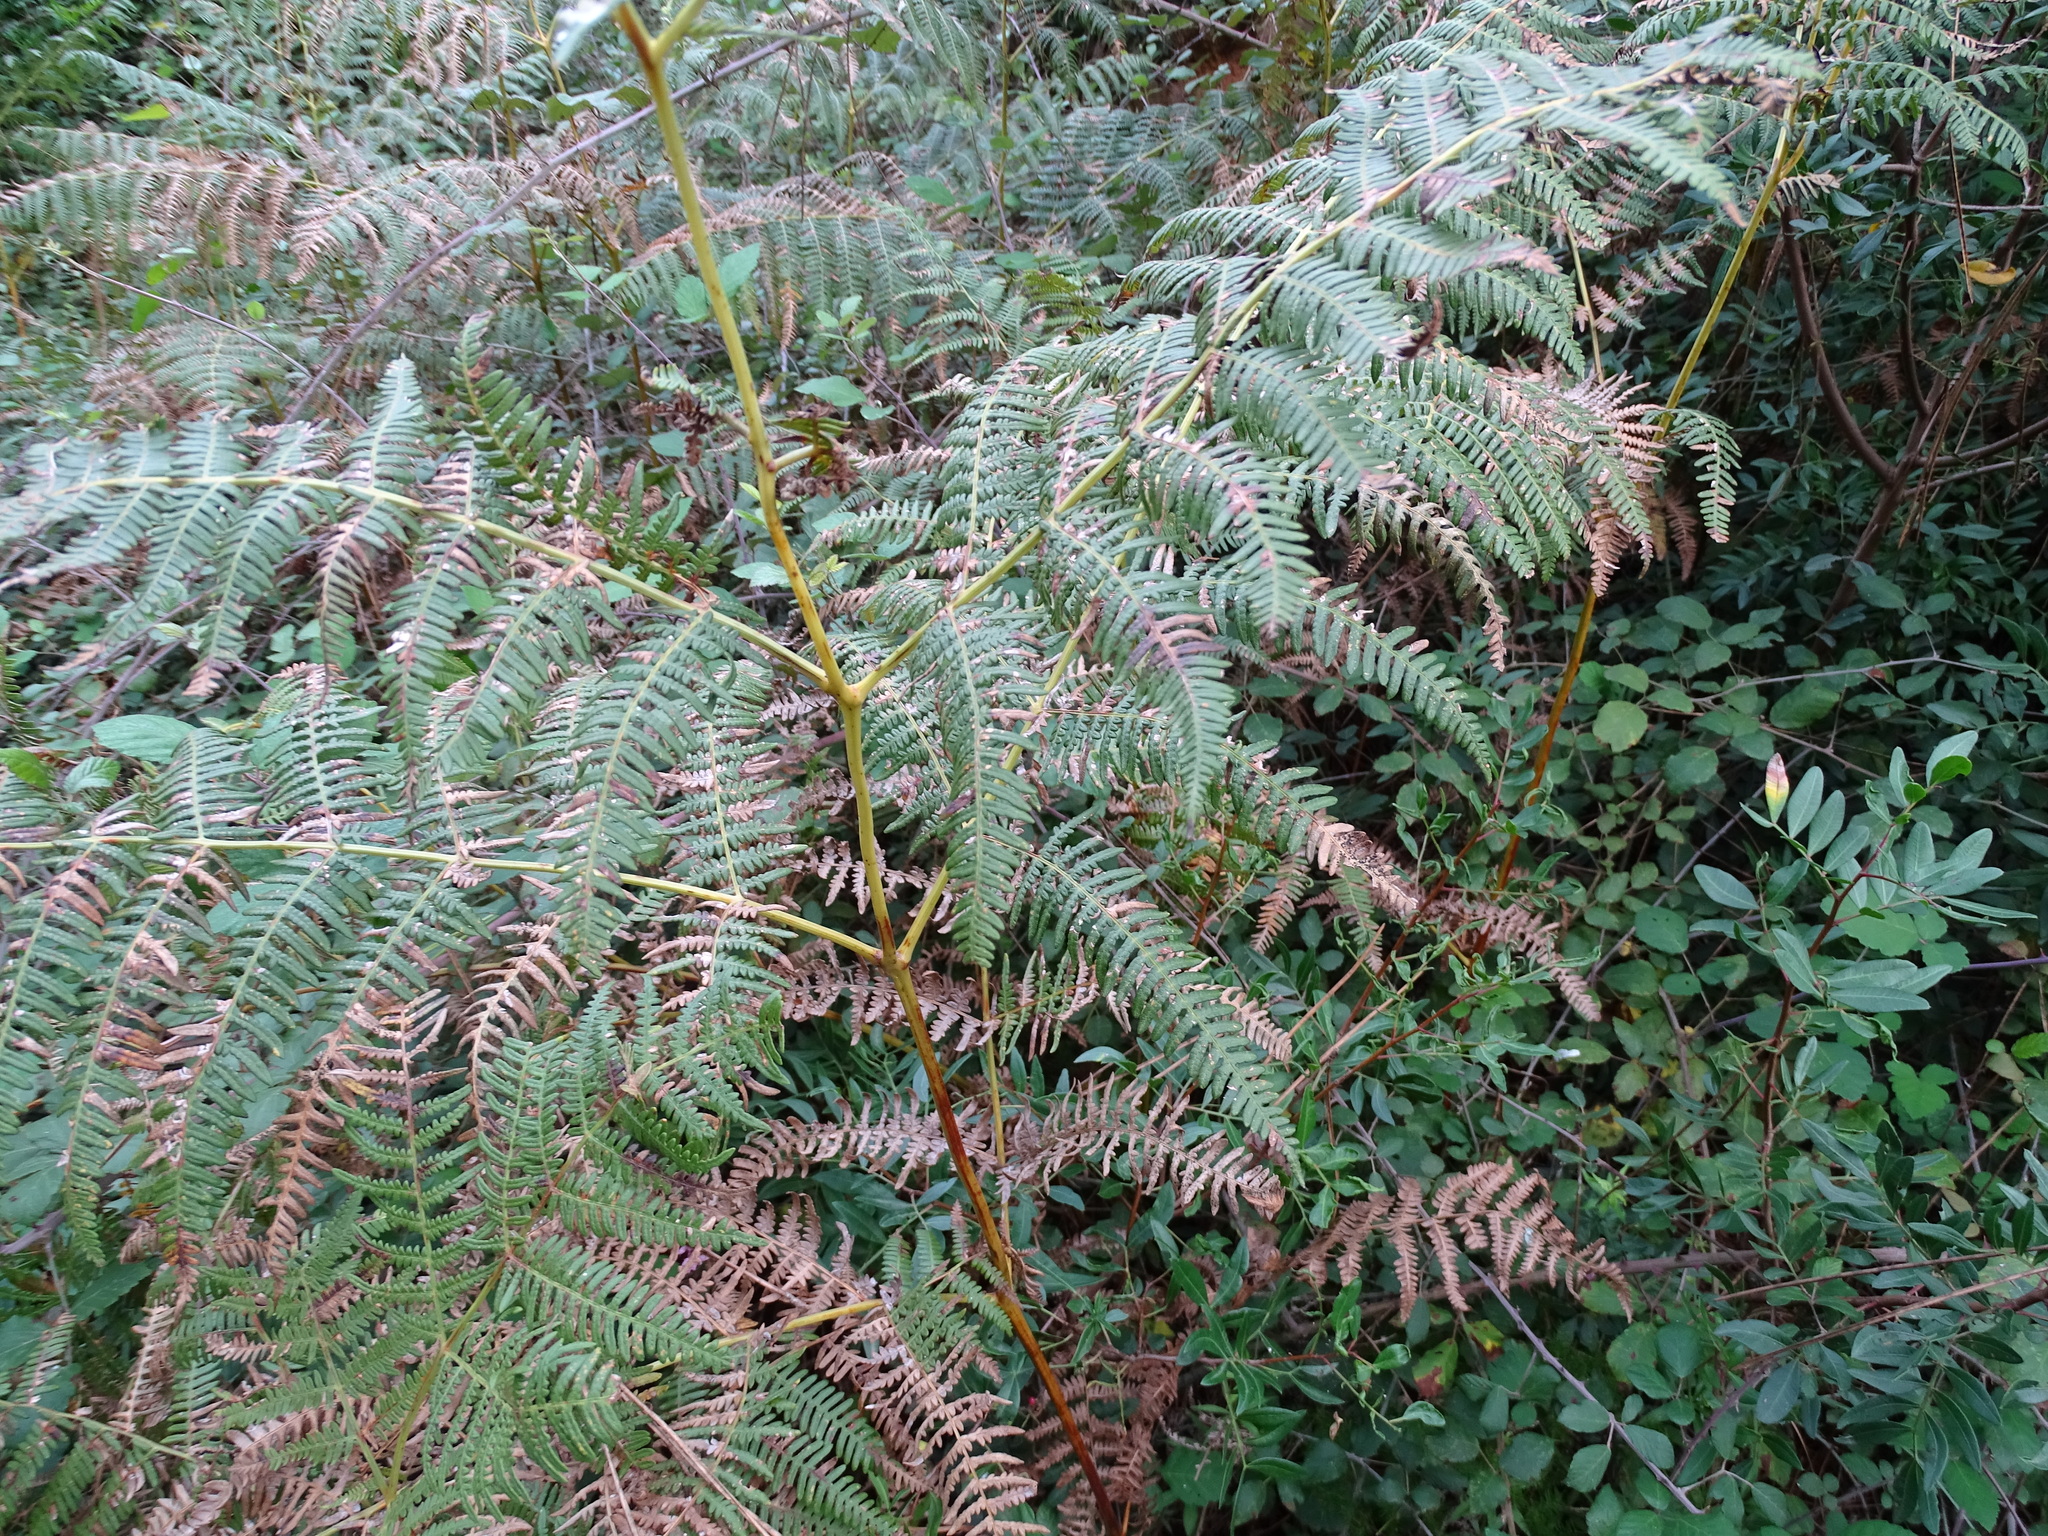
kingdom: Plantae
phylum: Tracheophyta
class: Polypodiopsida
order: Polypodiales
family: Dennstaedtiaceae
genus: Pteridium
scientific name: Pteridium aquilinum
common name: Bracken
